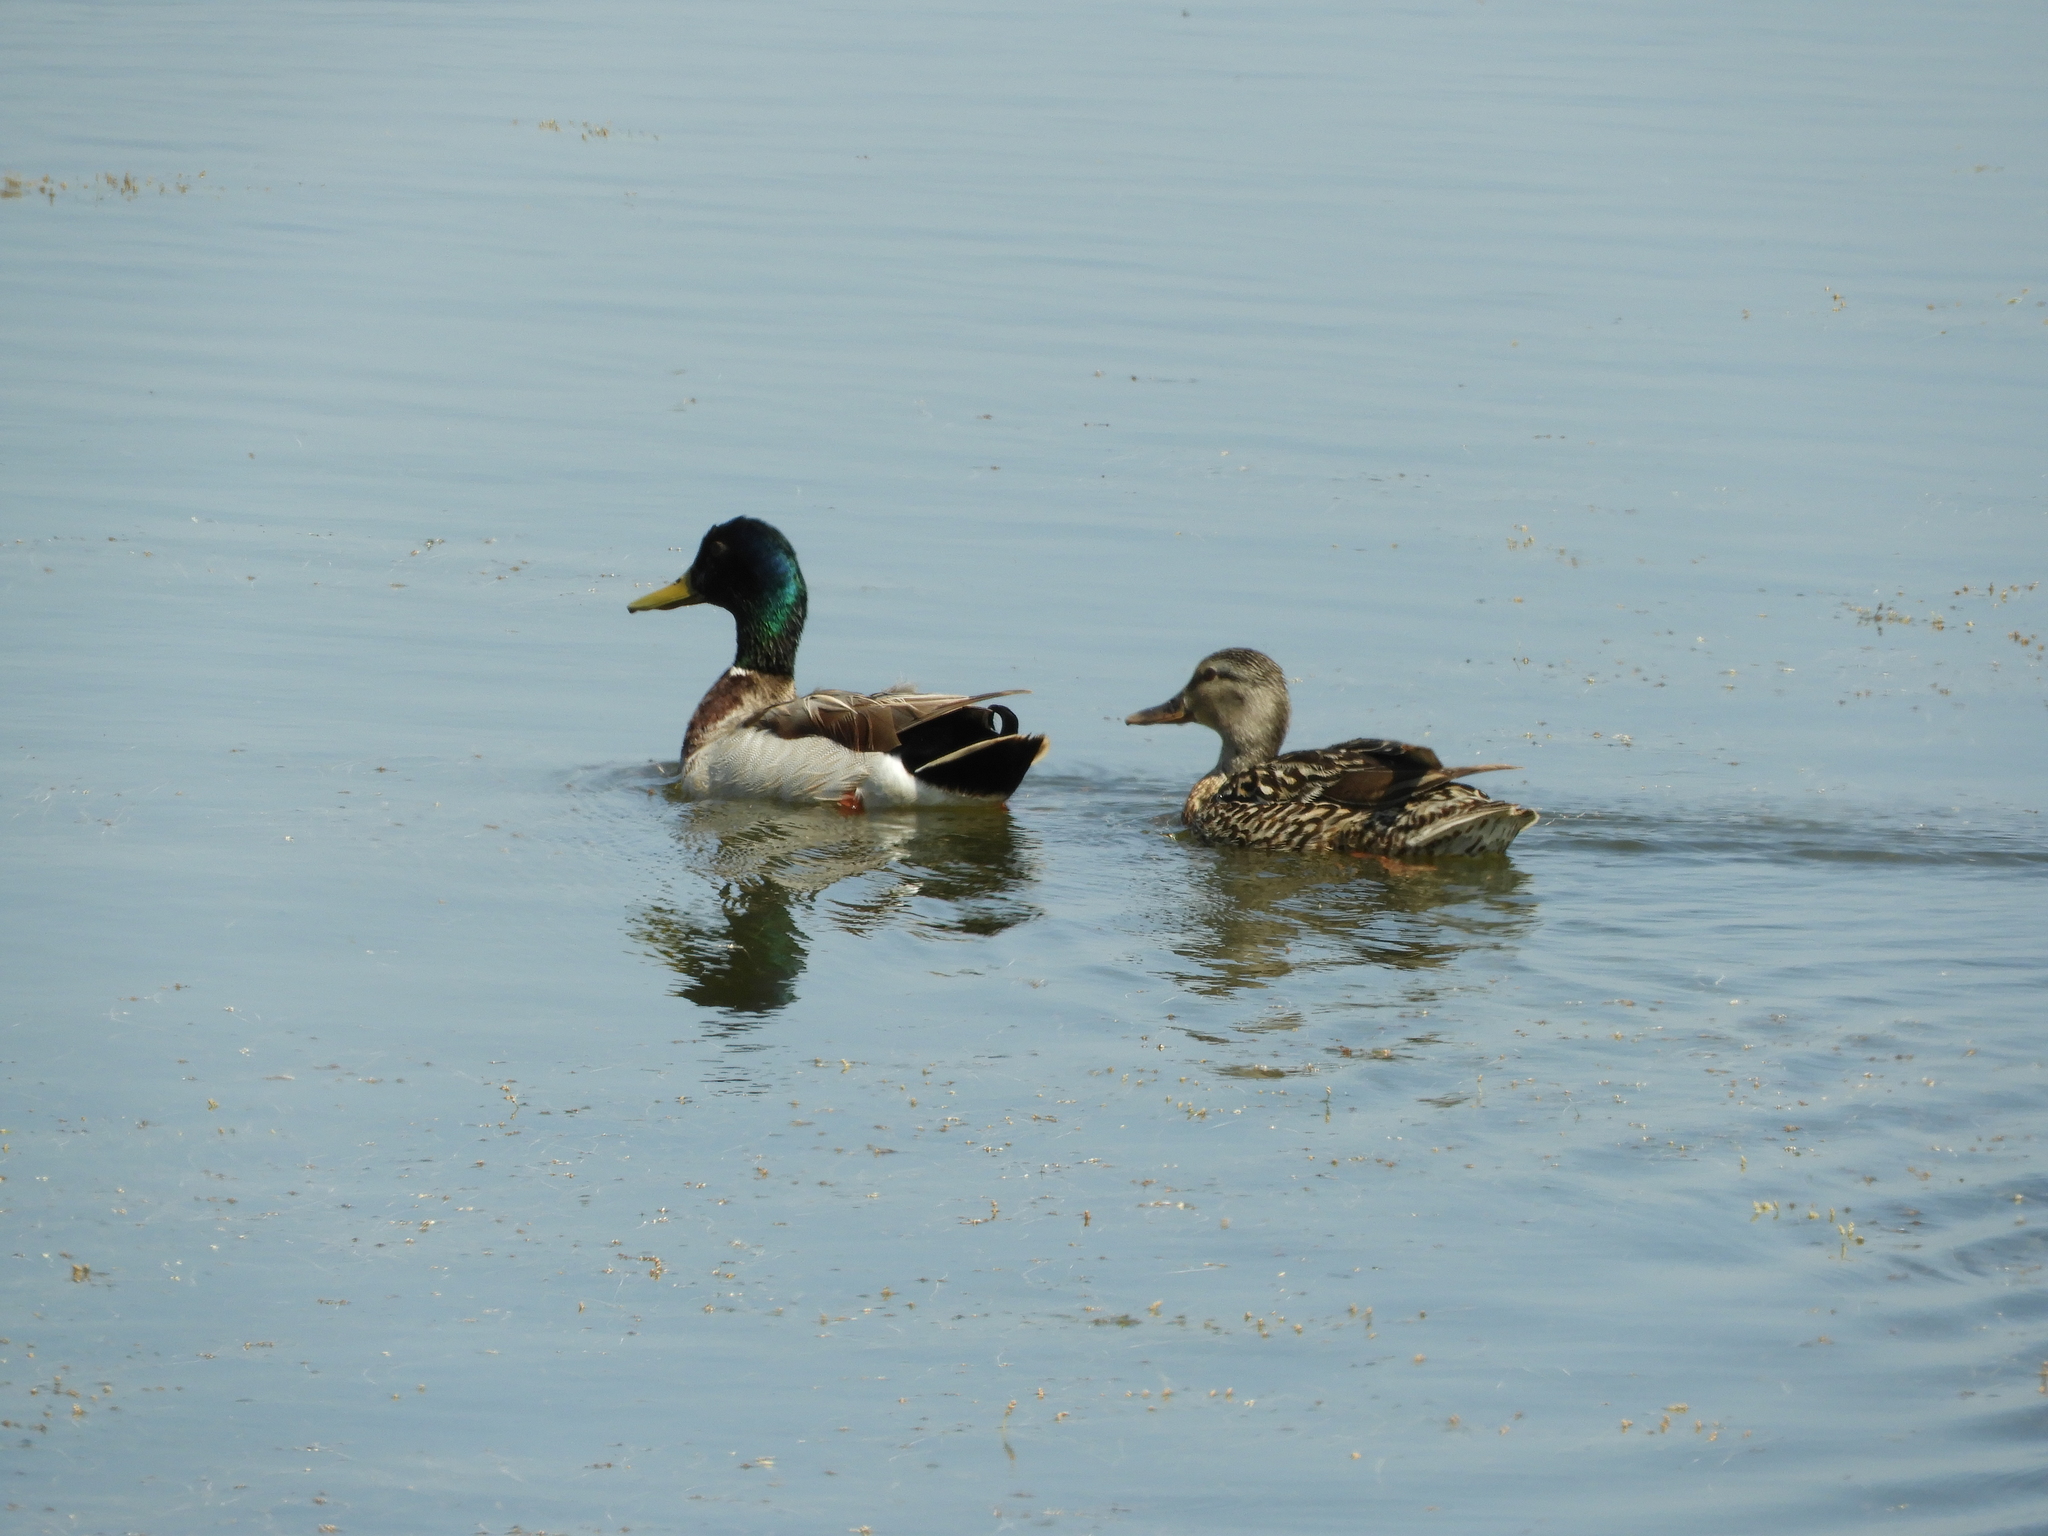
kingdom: Animalia
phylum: Chordata
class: Aves
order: Anseriformes
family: Anatidae
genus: Anas
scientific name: Anas platyrhynchos
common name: Mallard
